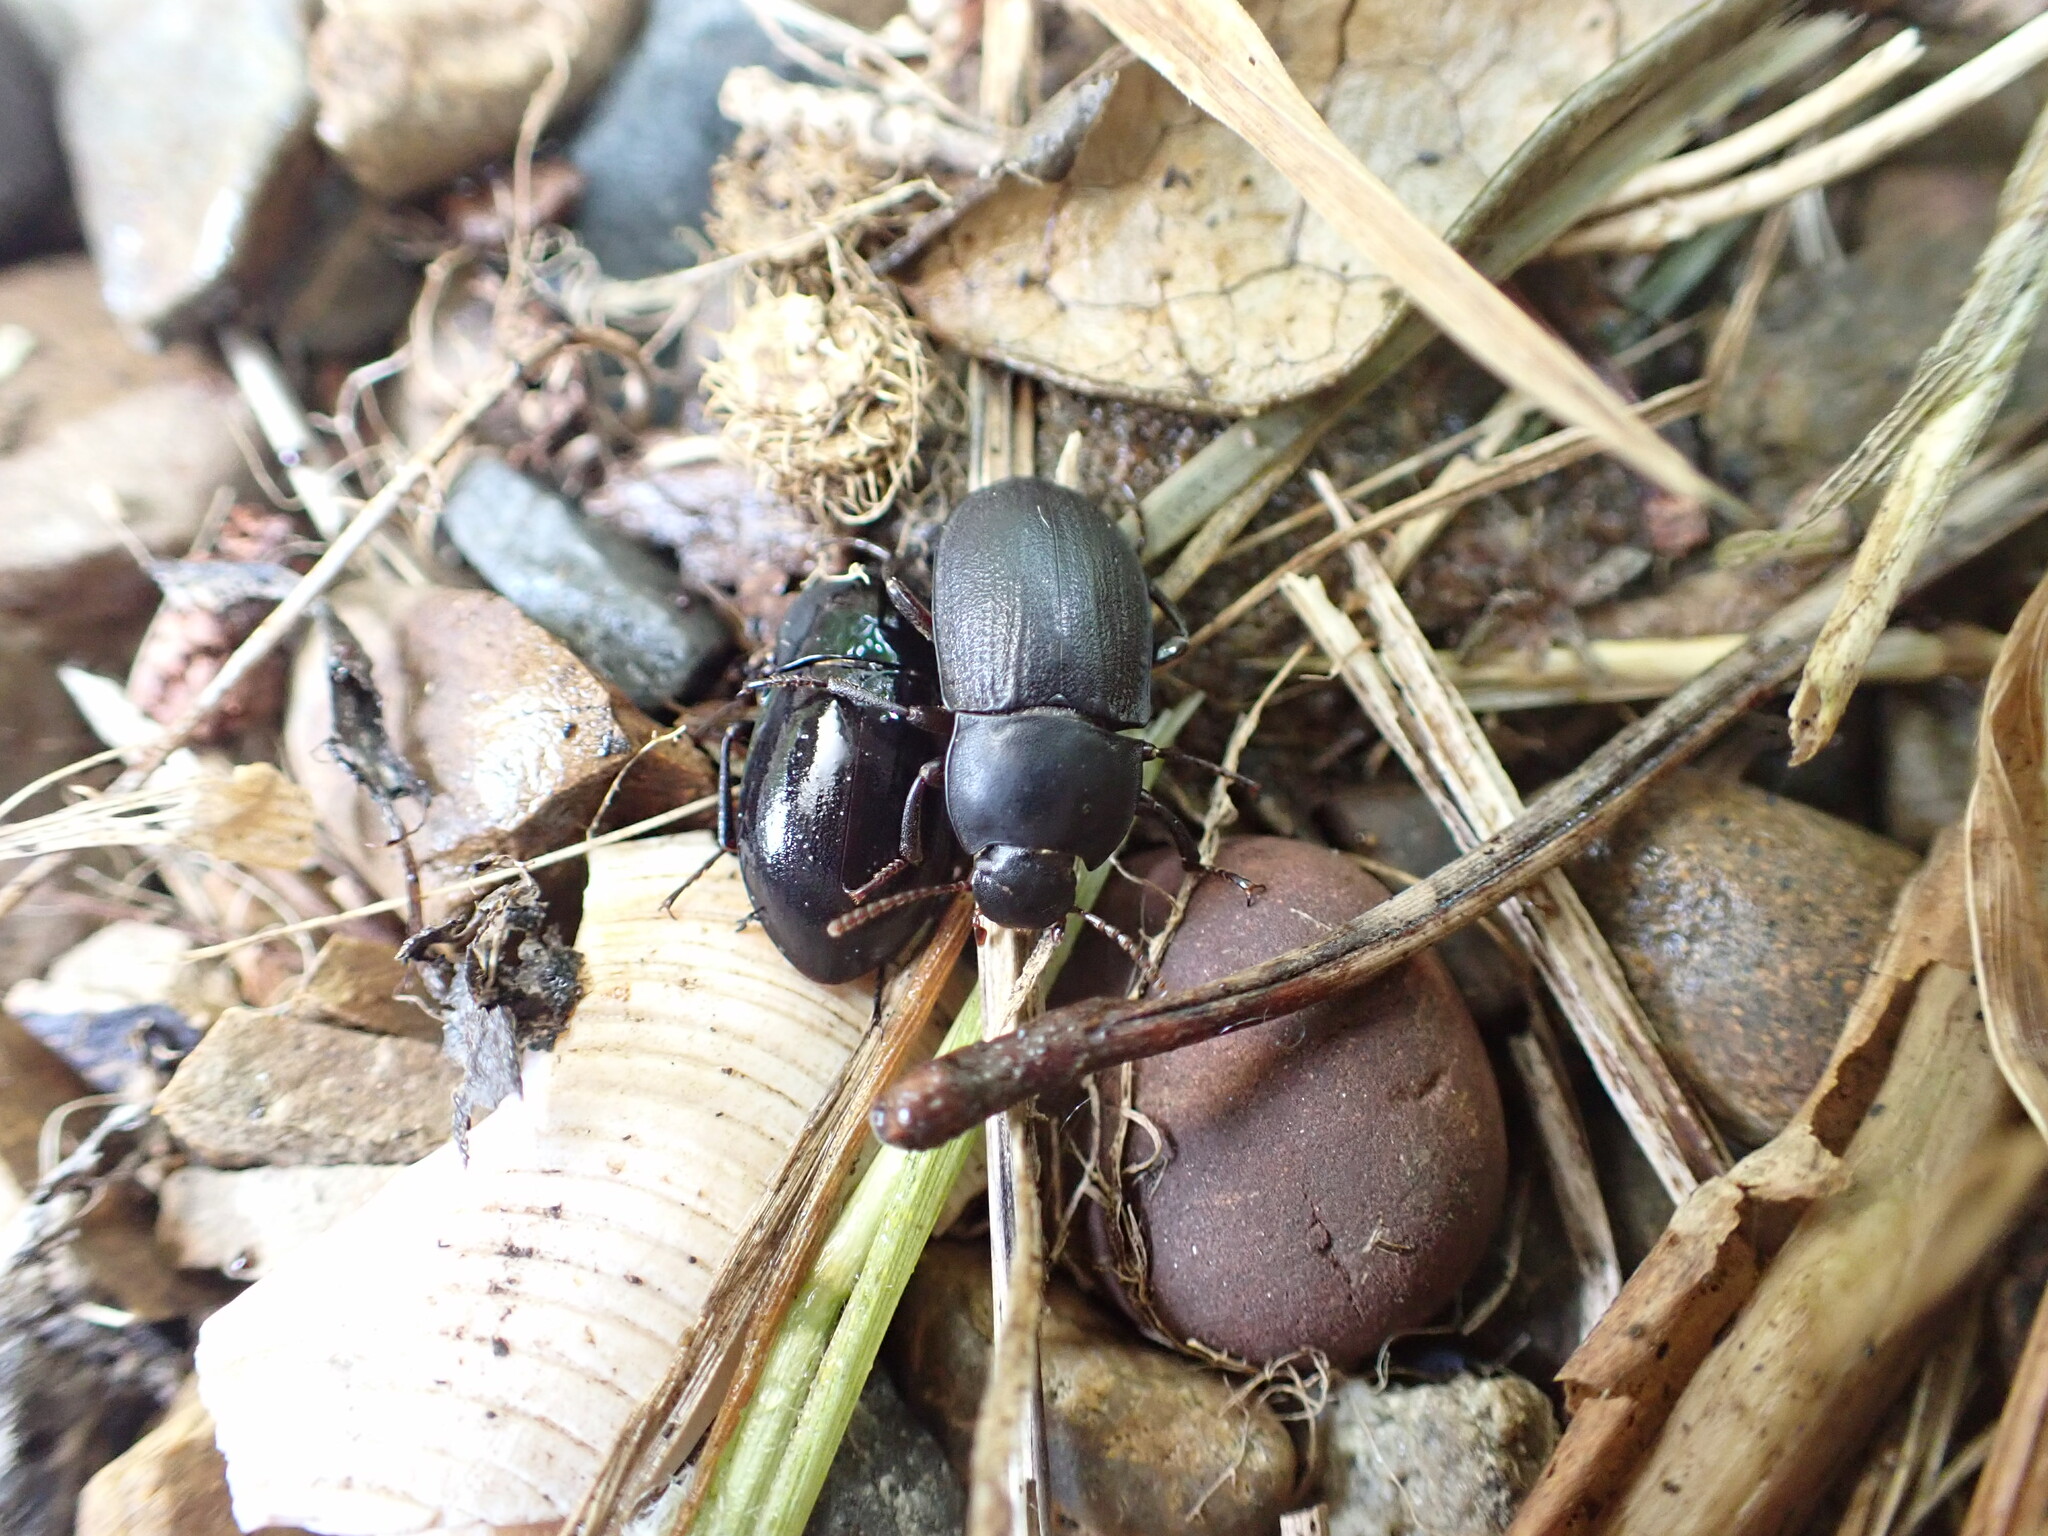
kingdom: Animalia
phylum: Arthropoda
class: Insecta
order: Coleoptera
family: Tenebrionidae
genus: Mimopeus
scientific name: Mimopeus
